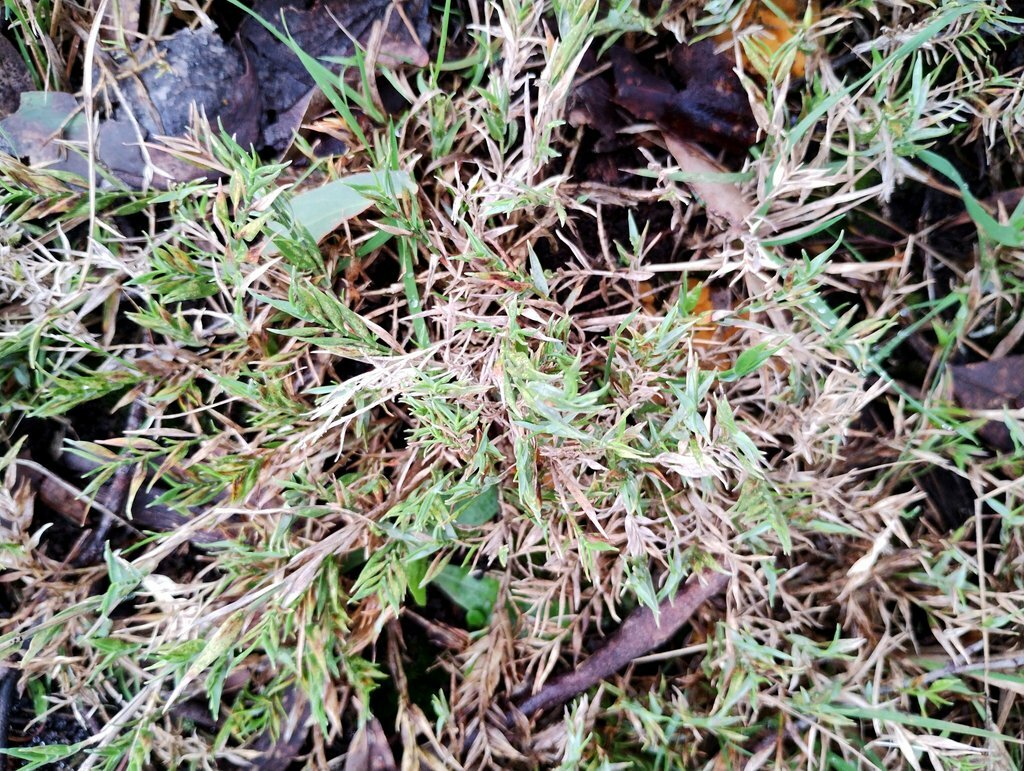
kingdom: Plantae
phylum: Tracheophyta
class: Liliopsida
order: Poales
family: Poaceae
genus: Tetrarrhena
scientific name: Tetrarrhena distichophylla
